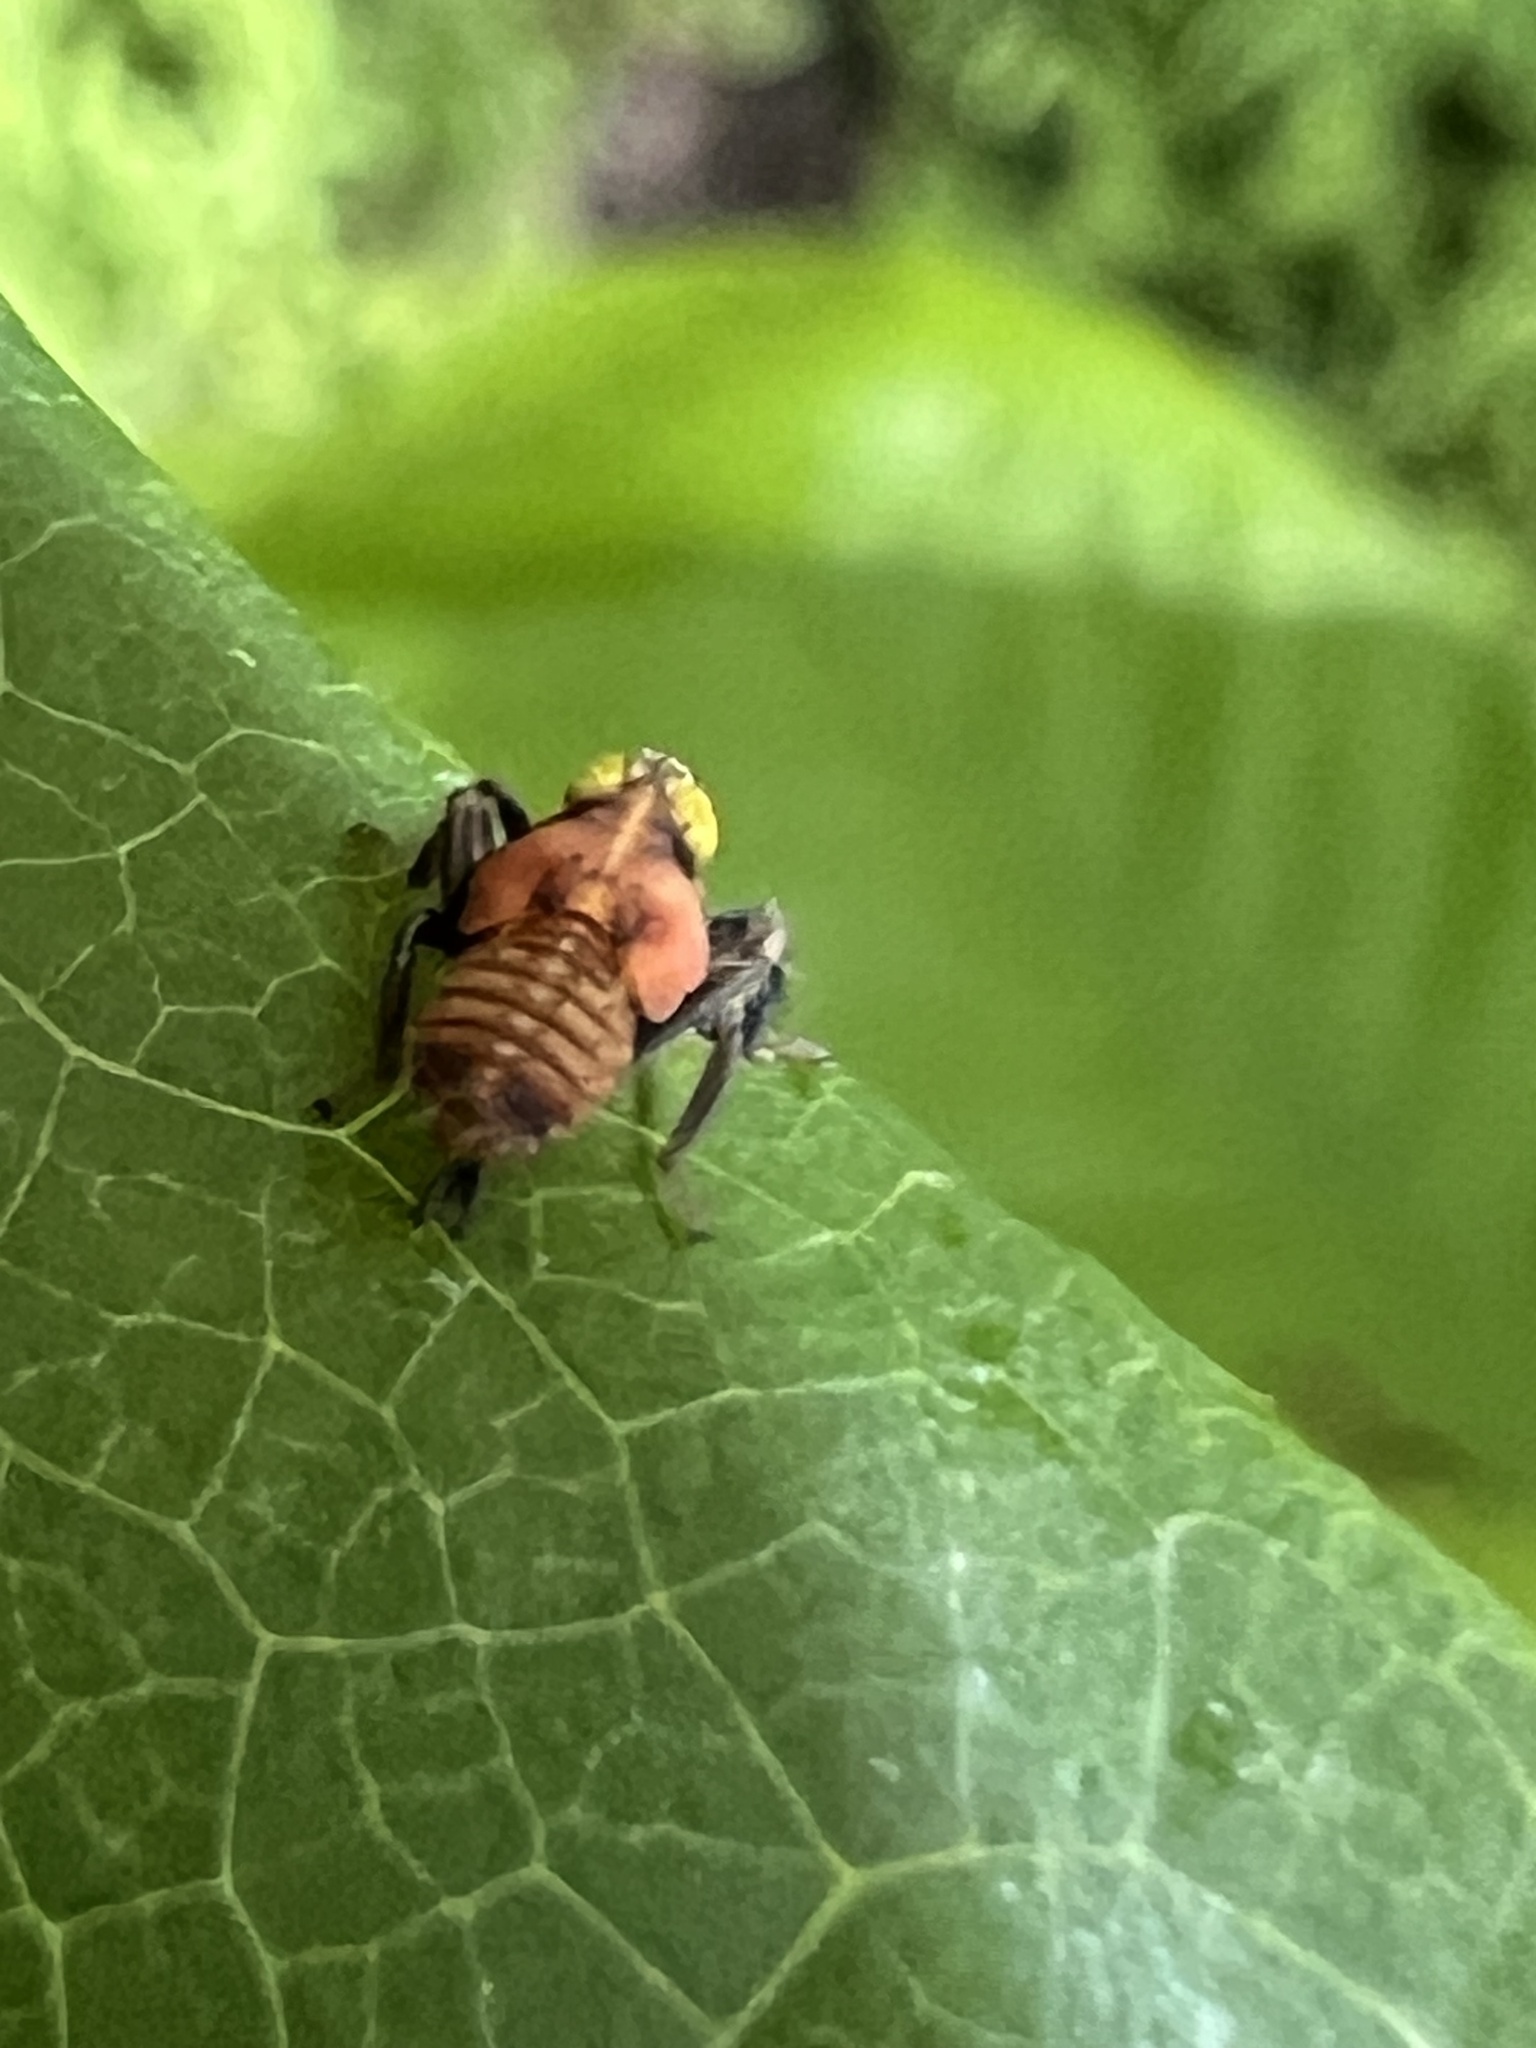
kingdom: Animalia
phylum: Arthropoda
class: Insecta
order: Hemiptera
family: Cicadellidae
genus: Jikradia
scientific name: Jikradia olitoria
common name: Coppery leafhopper
